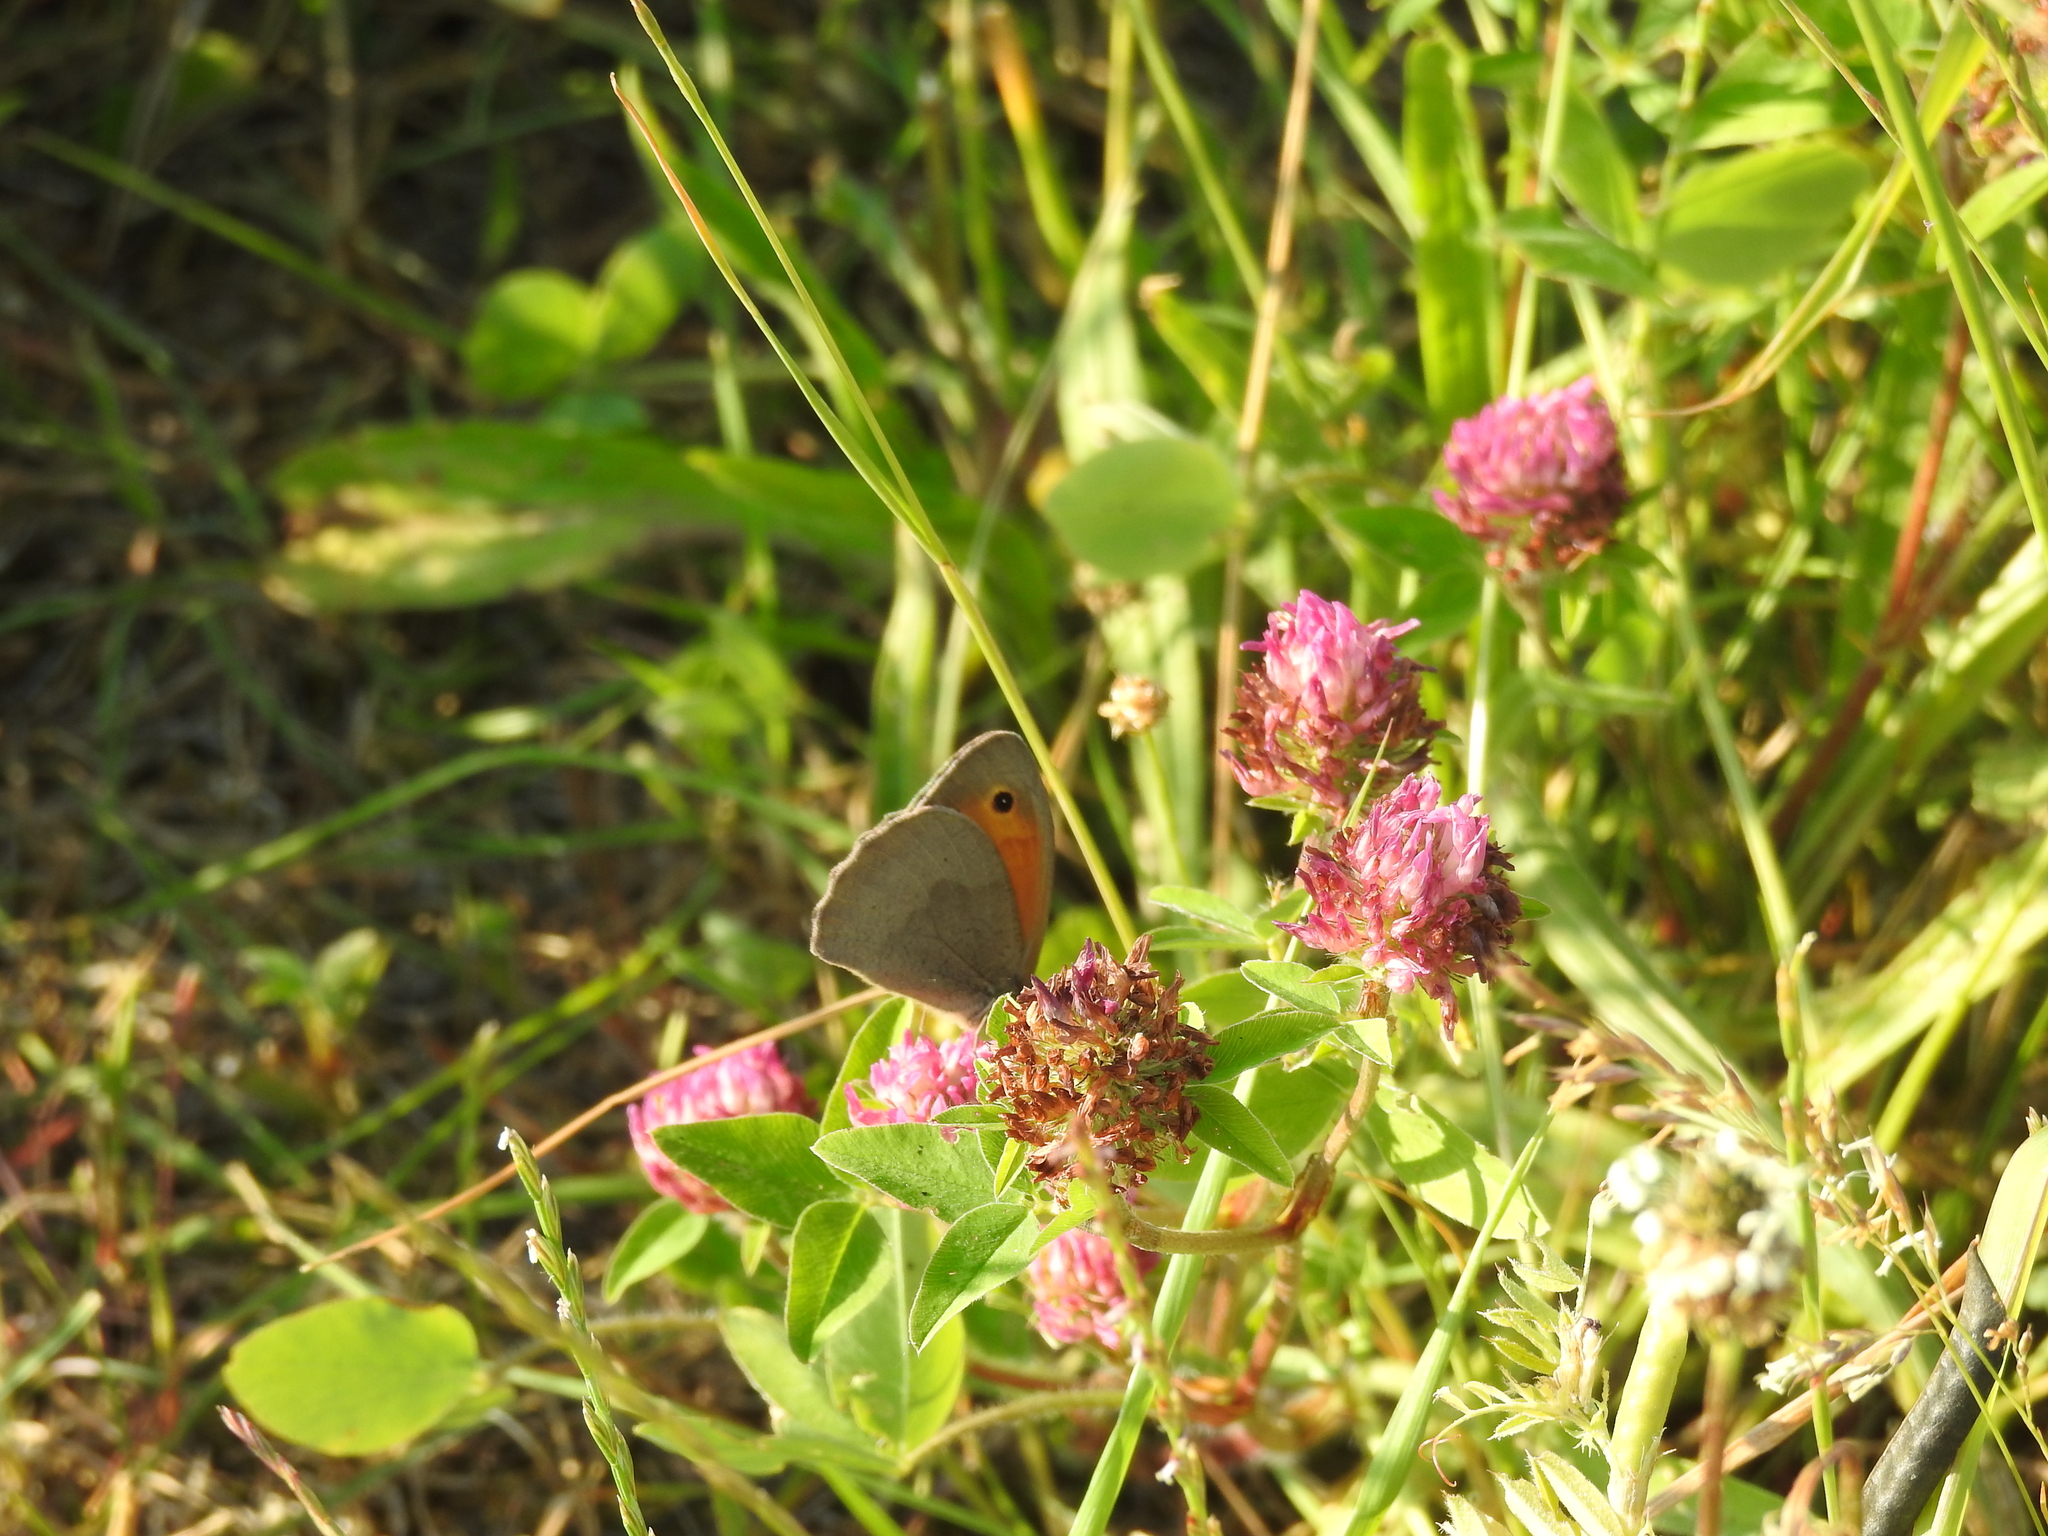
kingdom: Animalia
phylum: Arthropoda
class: Insecta
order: Lepidoptera
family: Nymphalidae
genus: Maniola
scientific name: Maniola jurtina
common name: Meadow brown
